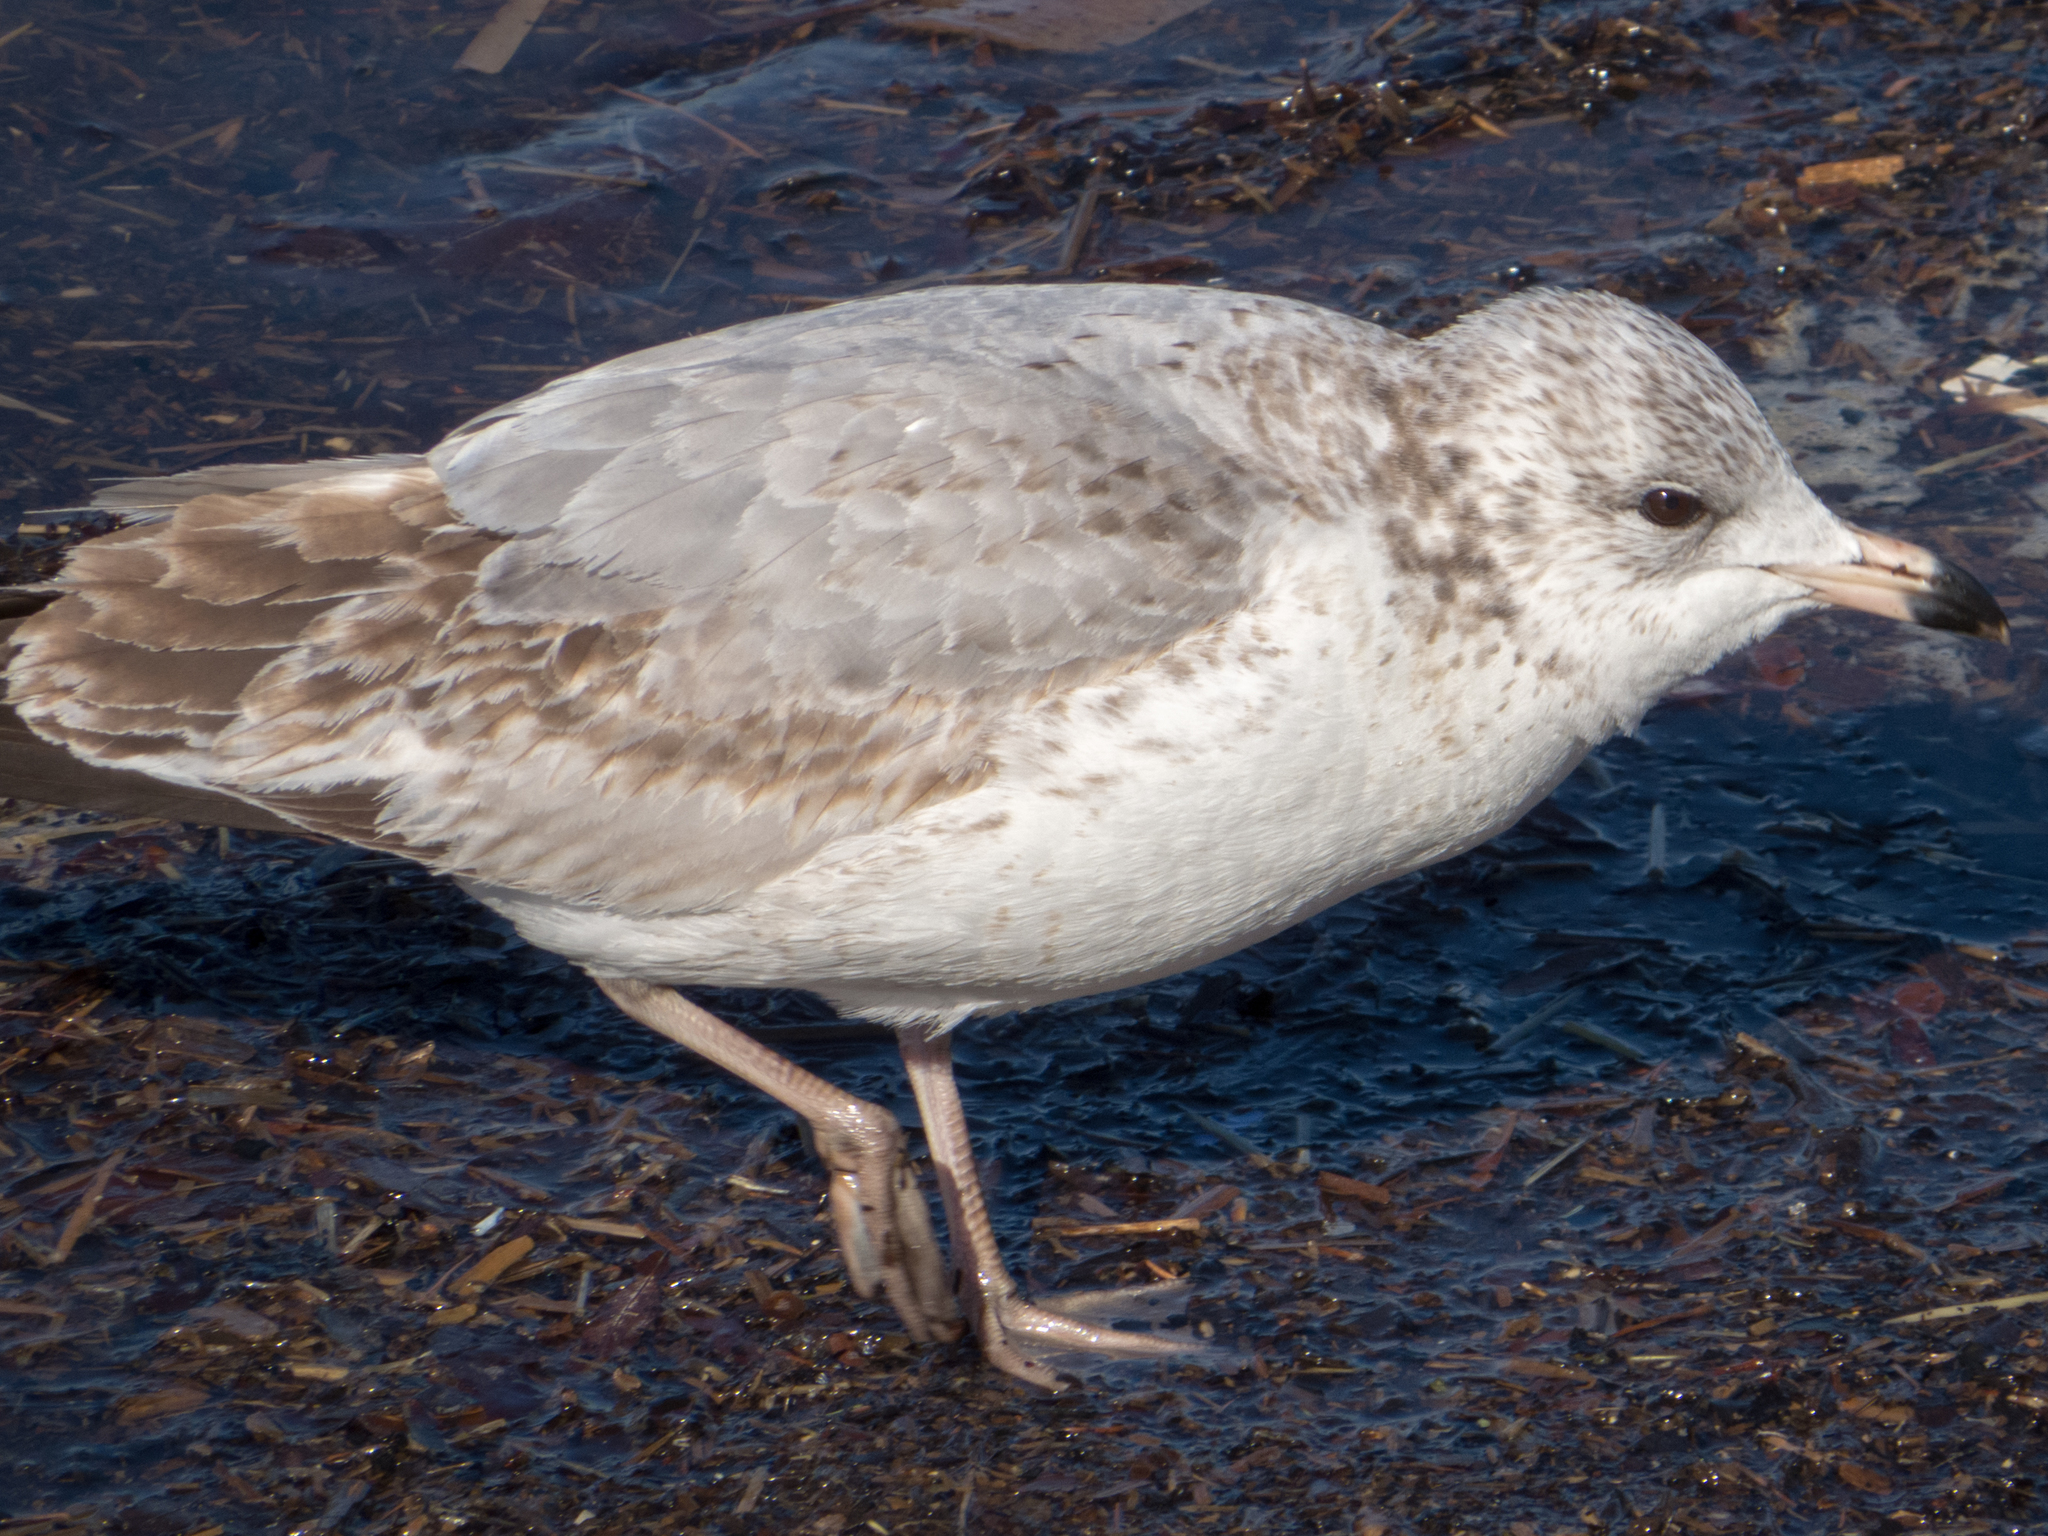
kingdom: Animalia
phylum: Chordata
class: Aves
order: Charadriiformes
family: Laridae
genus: Larus
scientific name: Larus delawarensis
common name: Ring-billed gull
